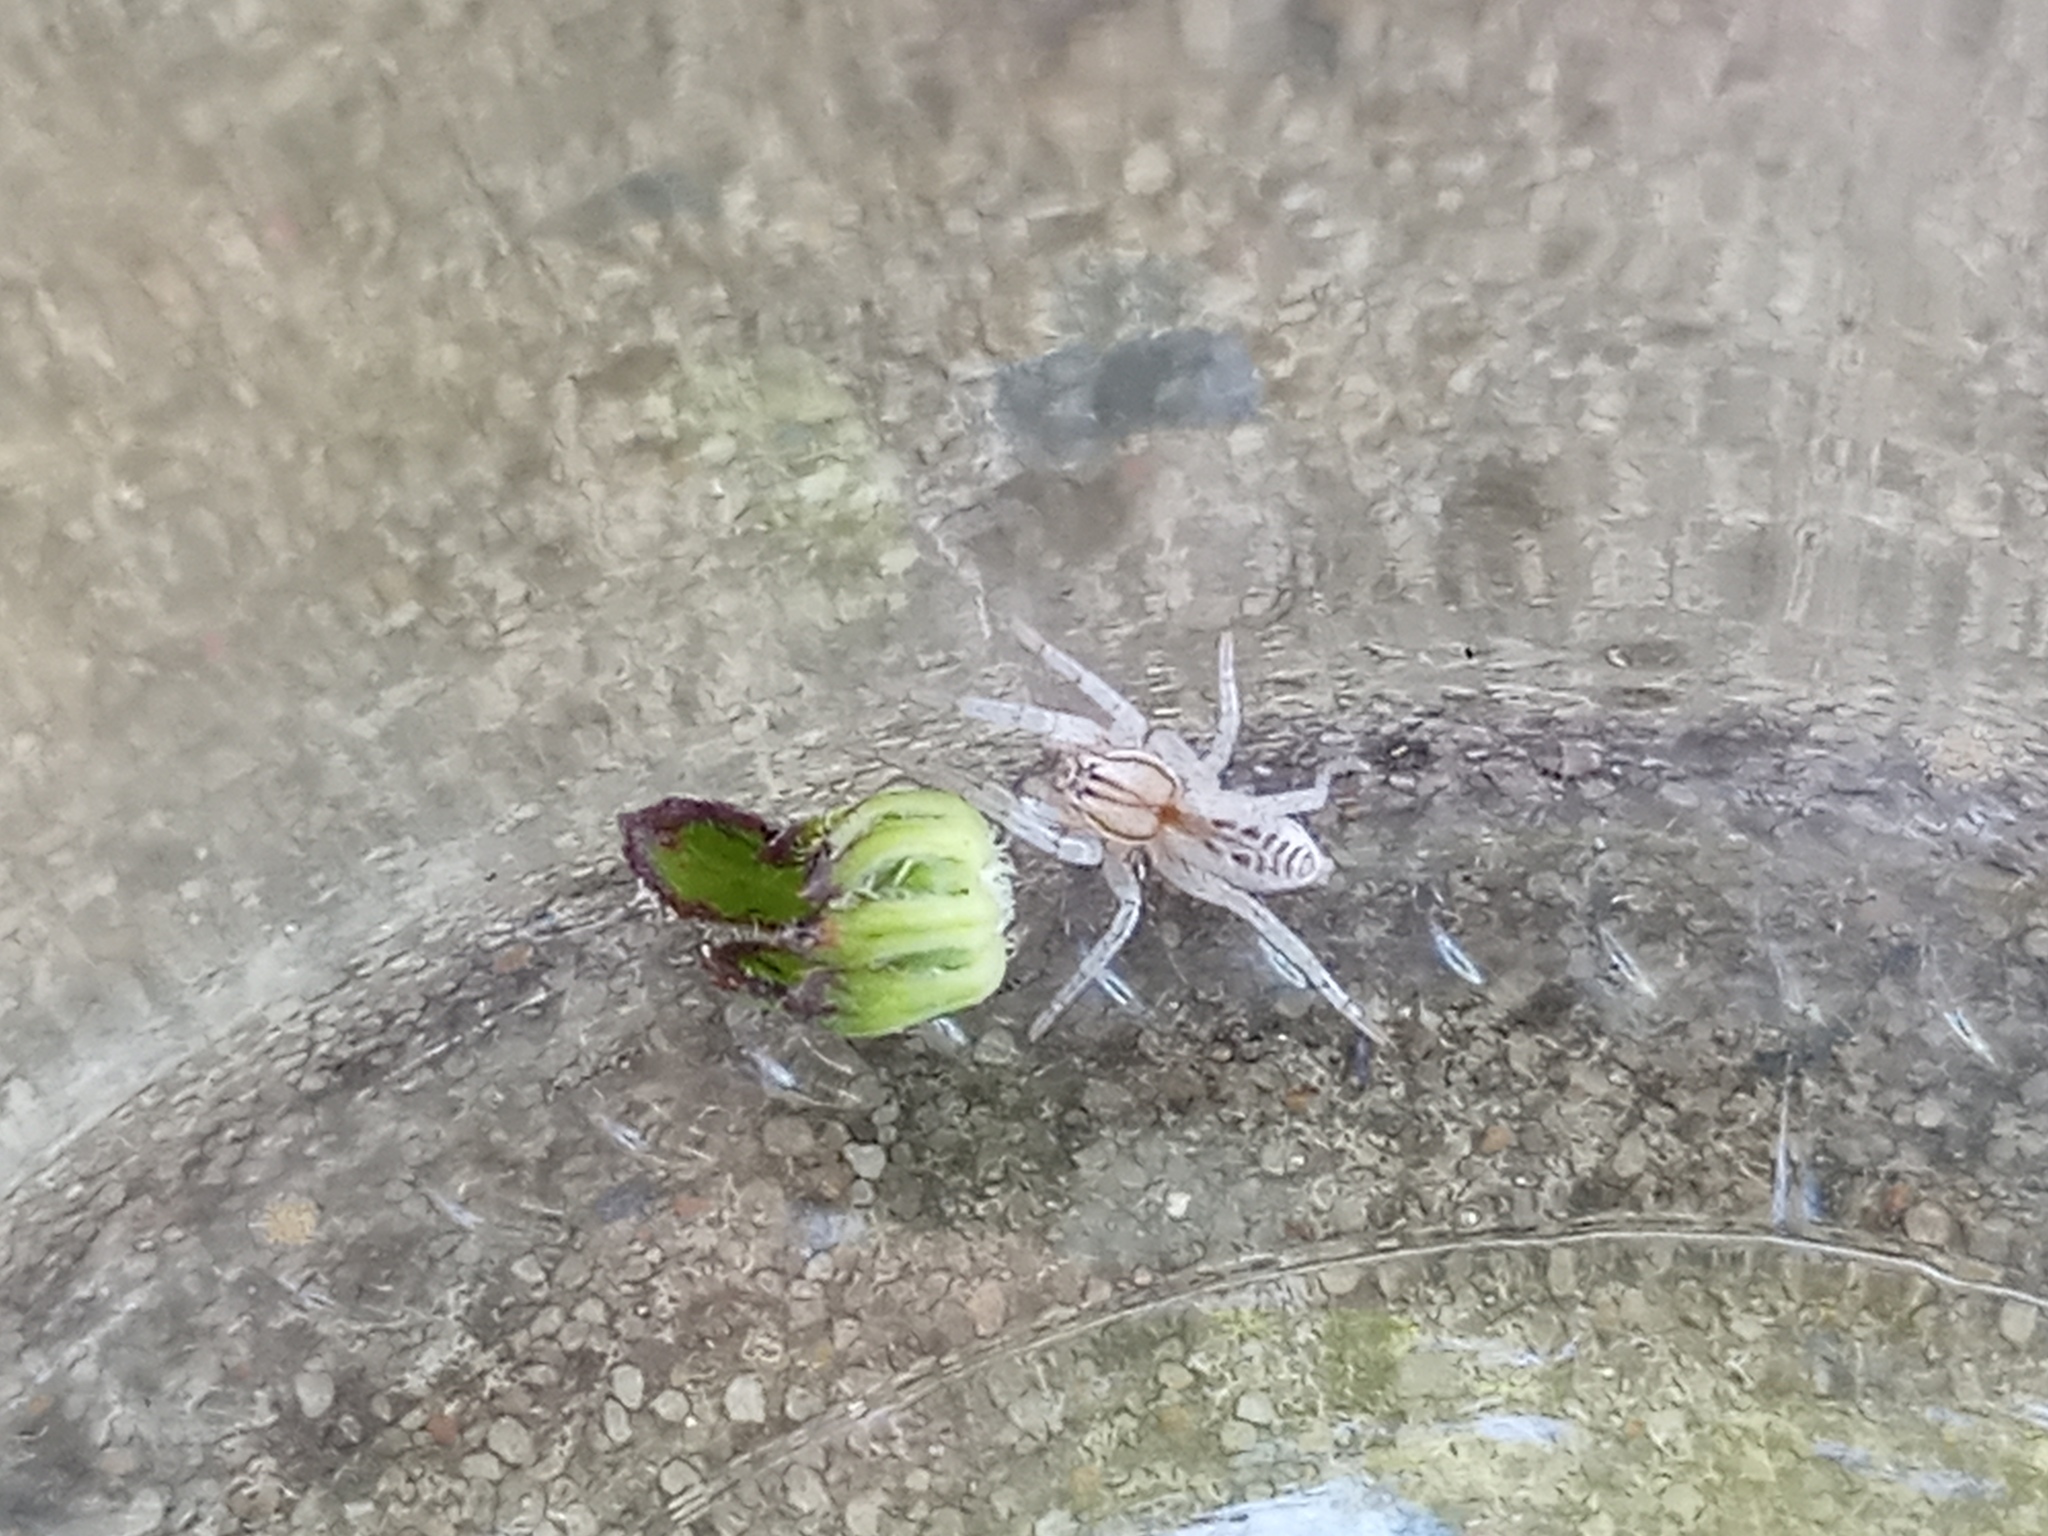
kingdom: Animalia
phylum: Arthropoda
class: Arachnida
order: Araneae
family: Anyphaenidae
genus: Arachosia
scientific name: Arachosia praesignis
